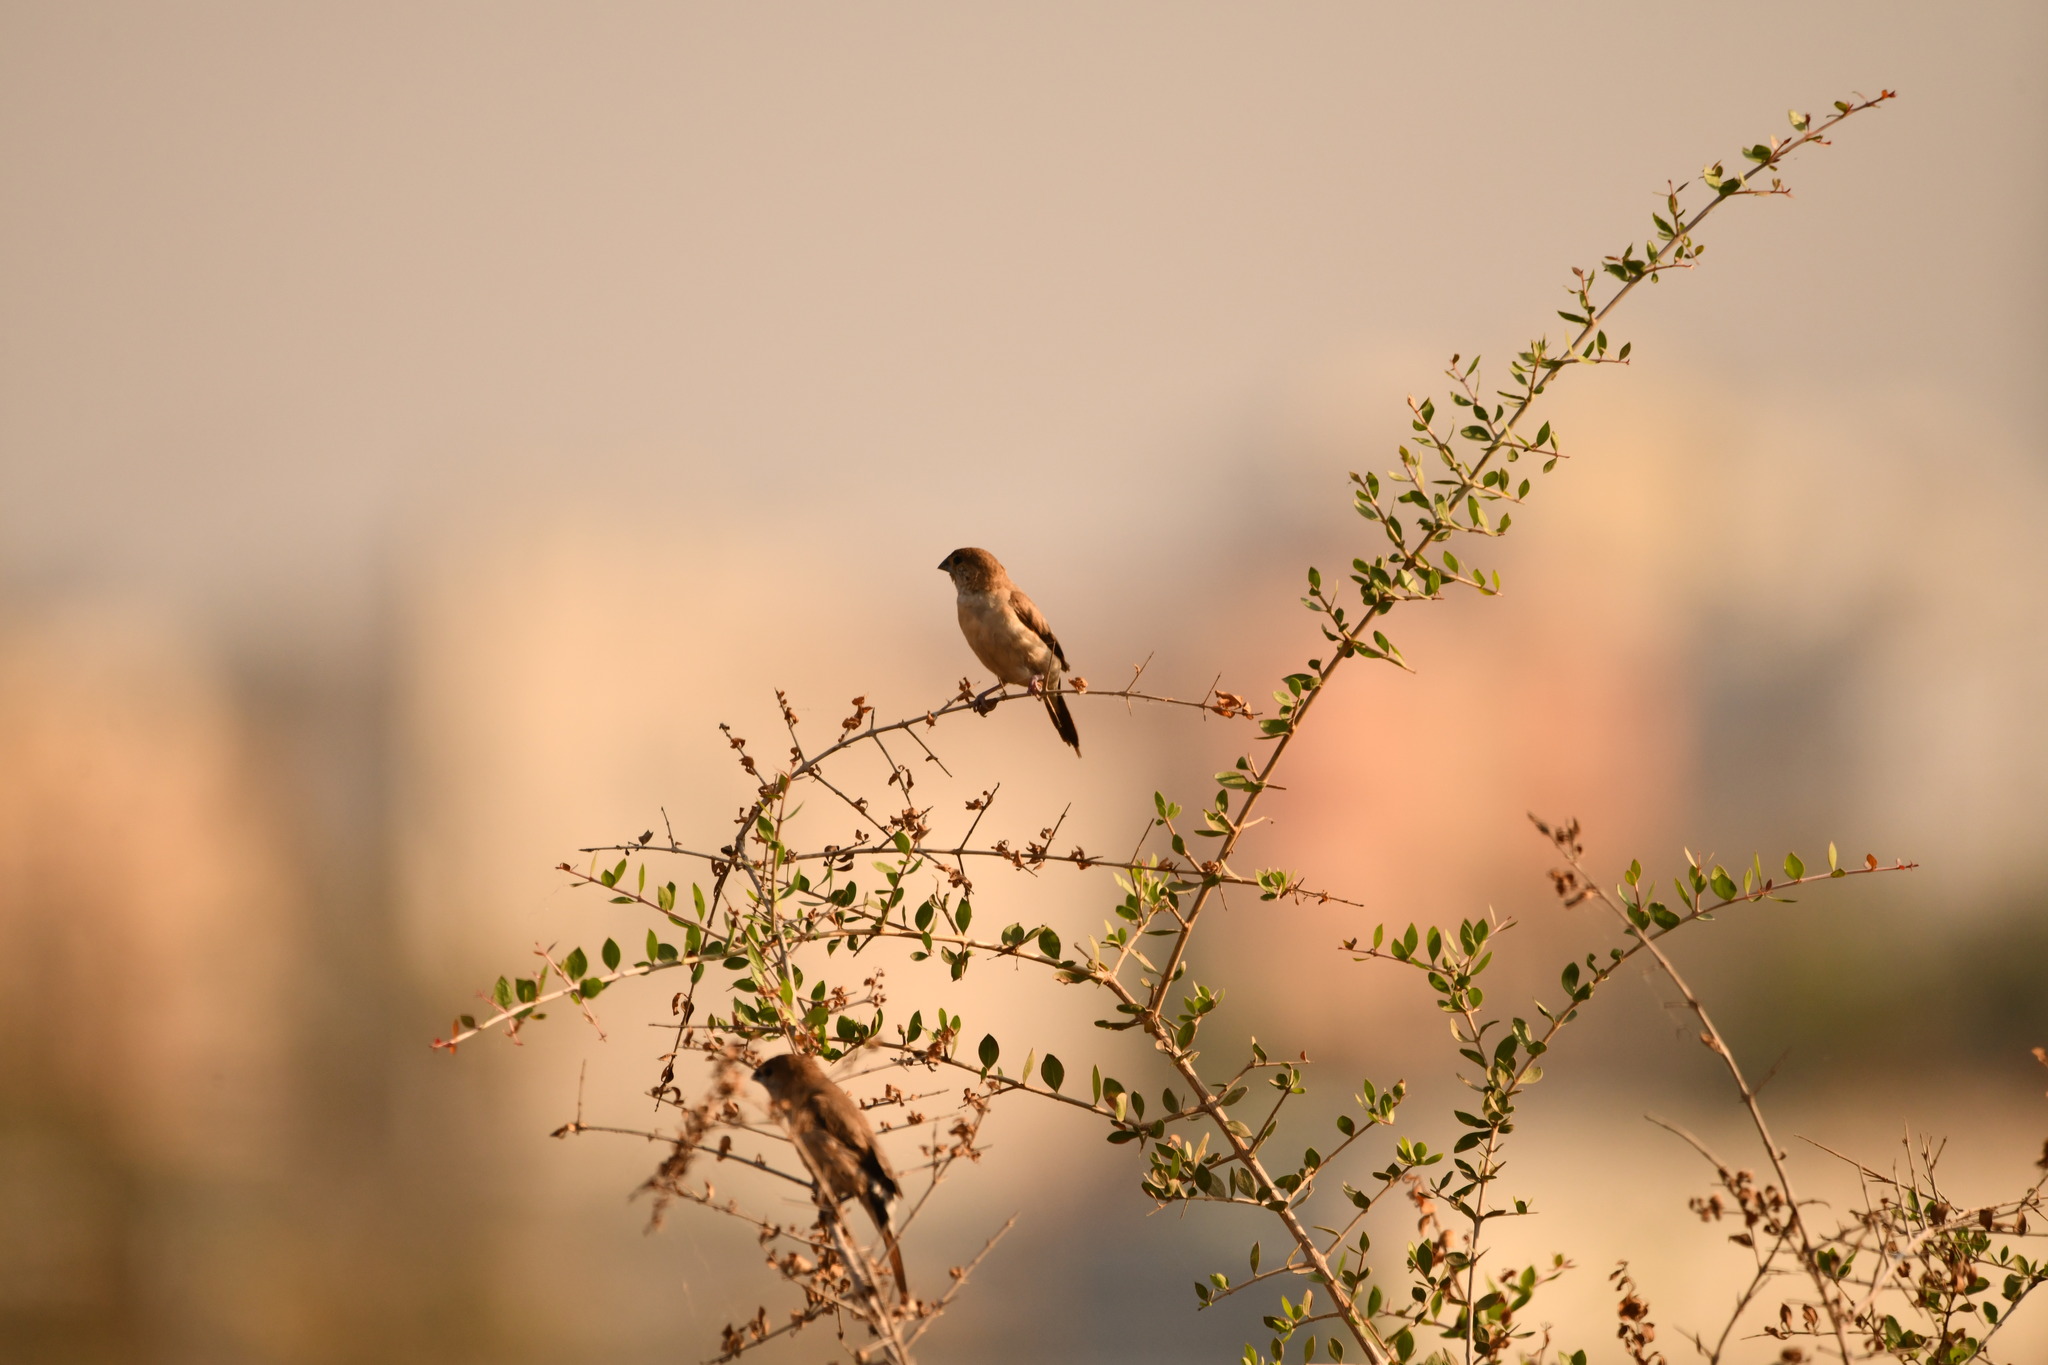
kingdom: Animalia
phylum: Chordata
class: Aves
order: Passeriformes
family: Estrildidae
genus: Euodice
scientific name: Euodice malabarica
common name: Indian silverbill
